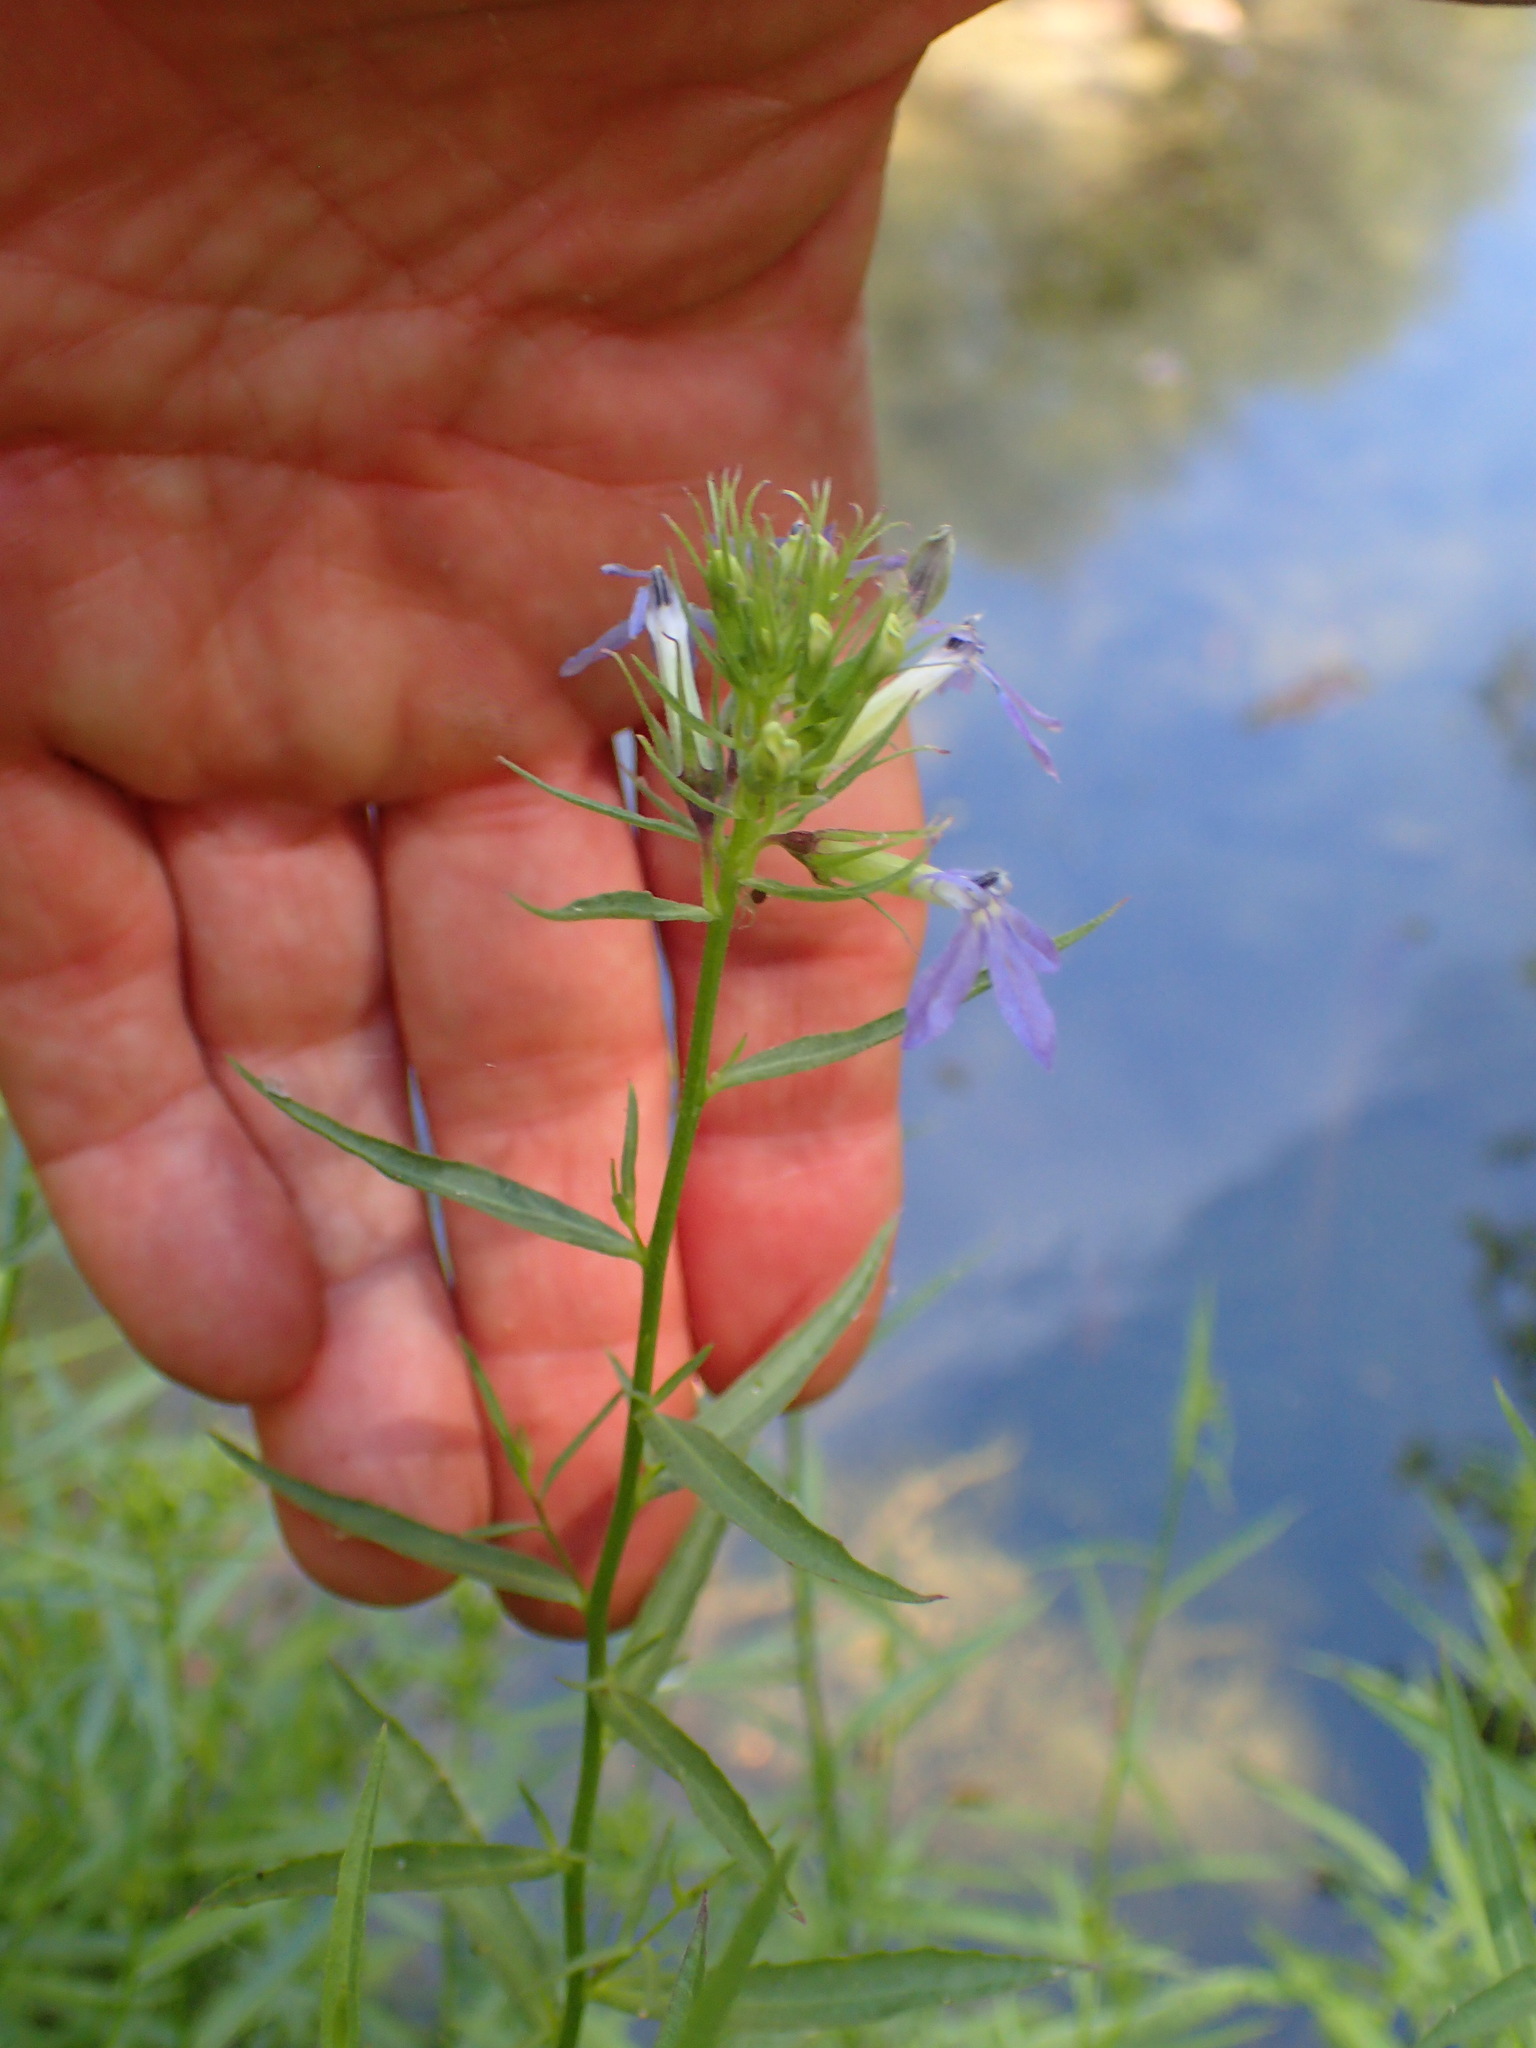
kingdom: Plantae
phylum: Tracheophyta
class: Magnoliopsida
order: Asterales
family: Campanulaceae
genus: Palmerella
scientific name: Palmerella debilis
